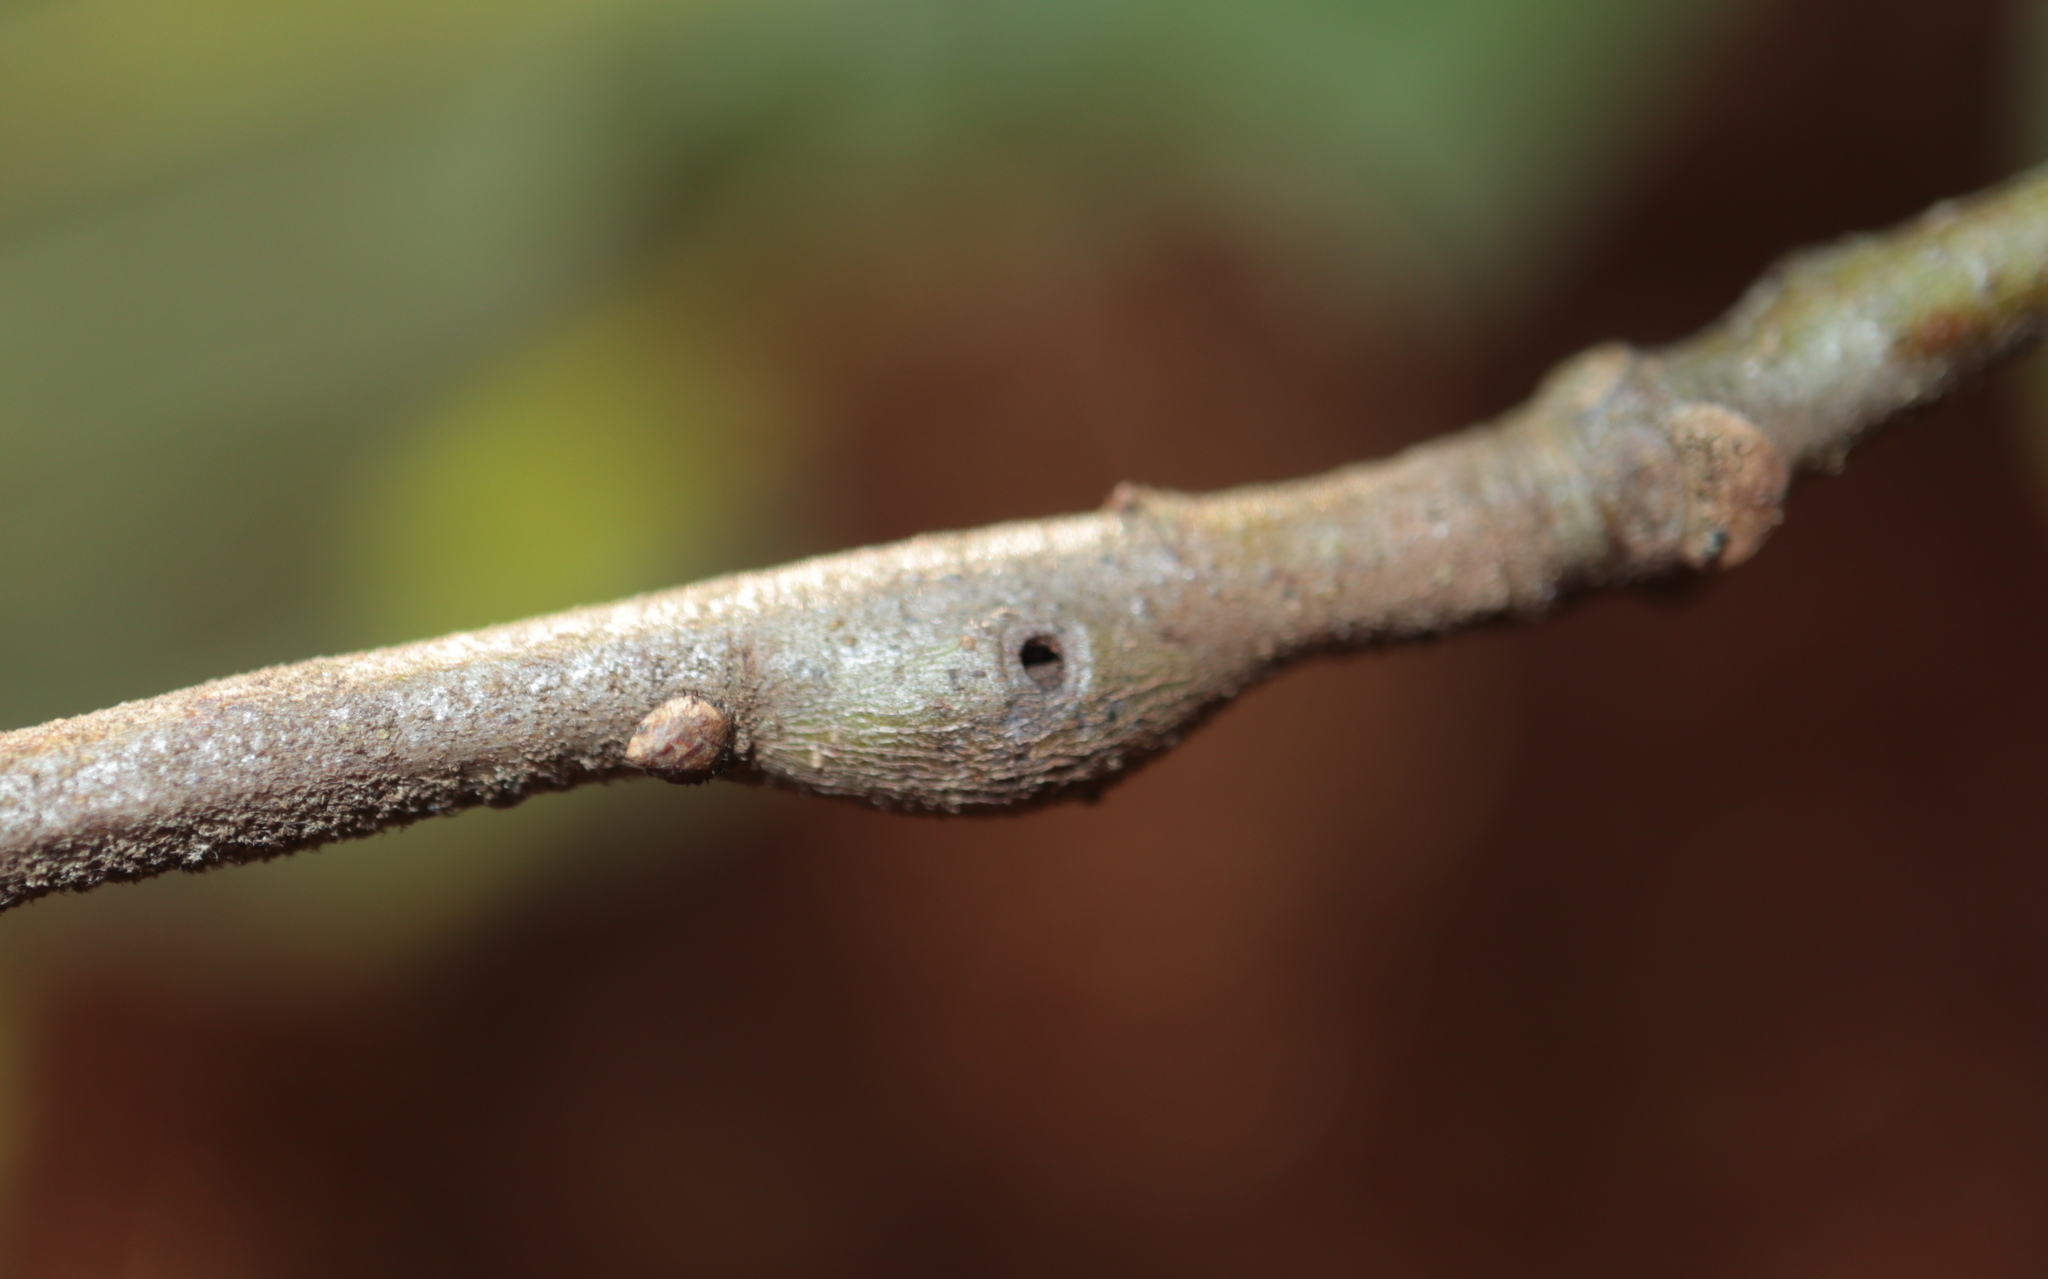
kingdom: Animalia
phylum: Arthropoda
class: Insecta
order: Hymenoptera
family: Cynipidae
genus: Zapatella
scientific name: Zapatella quercusmedullae
